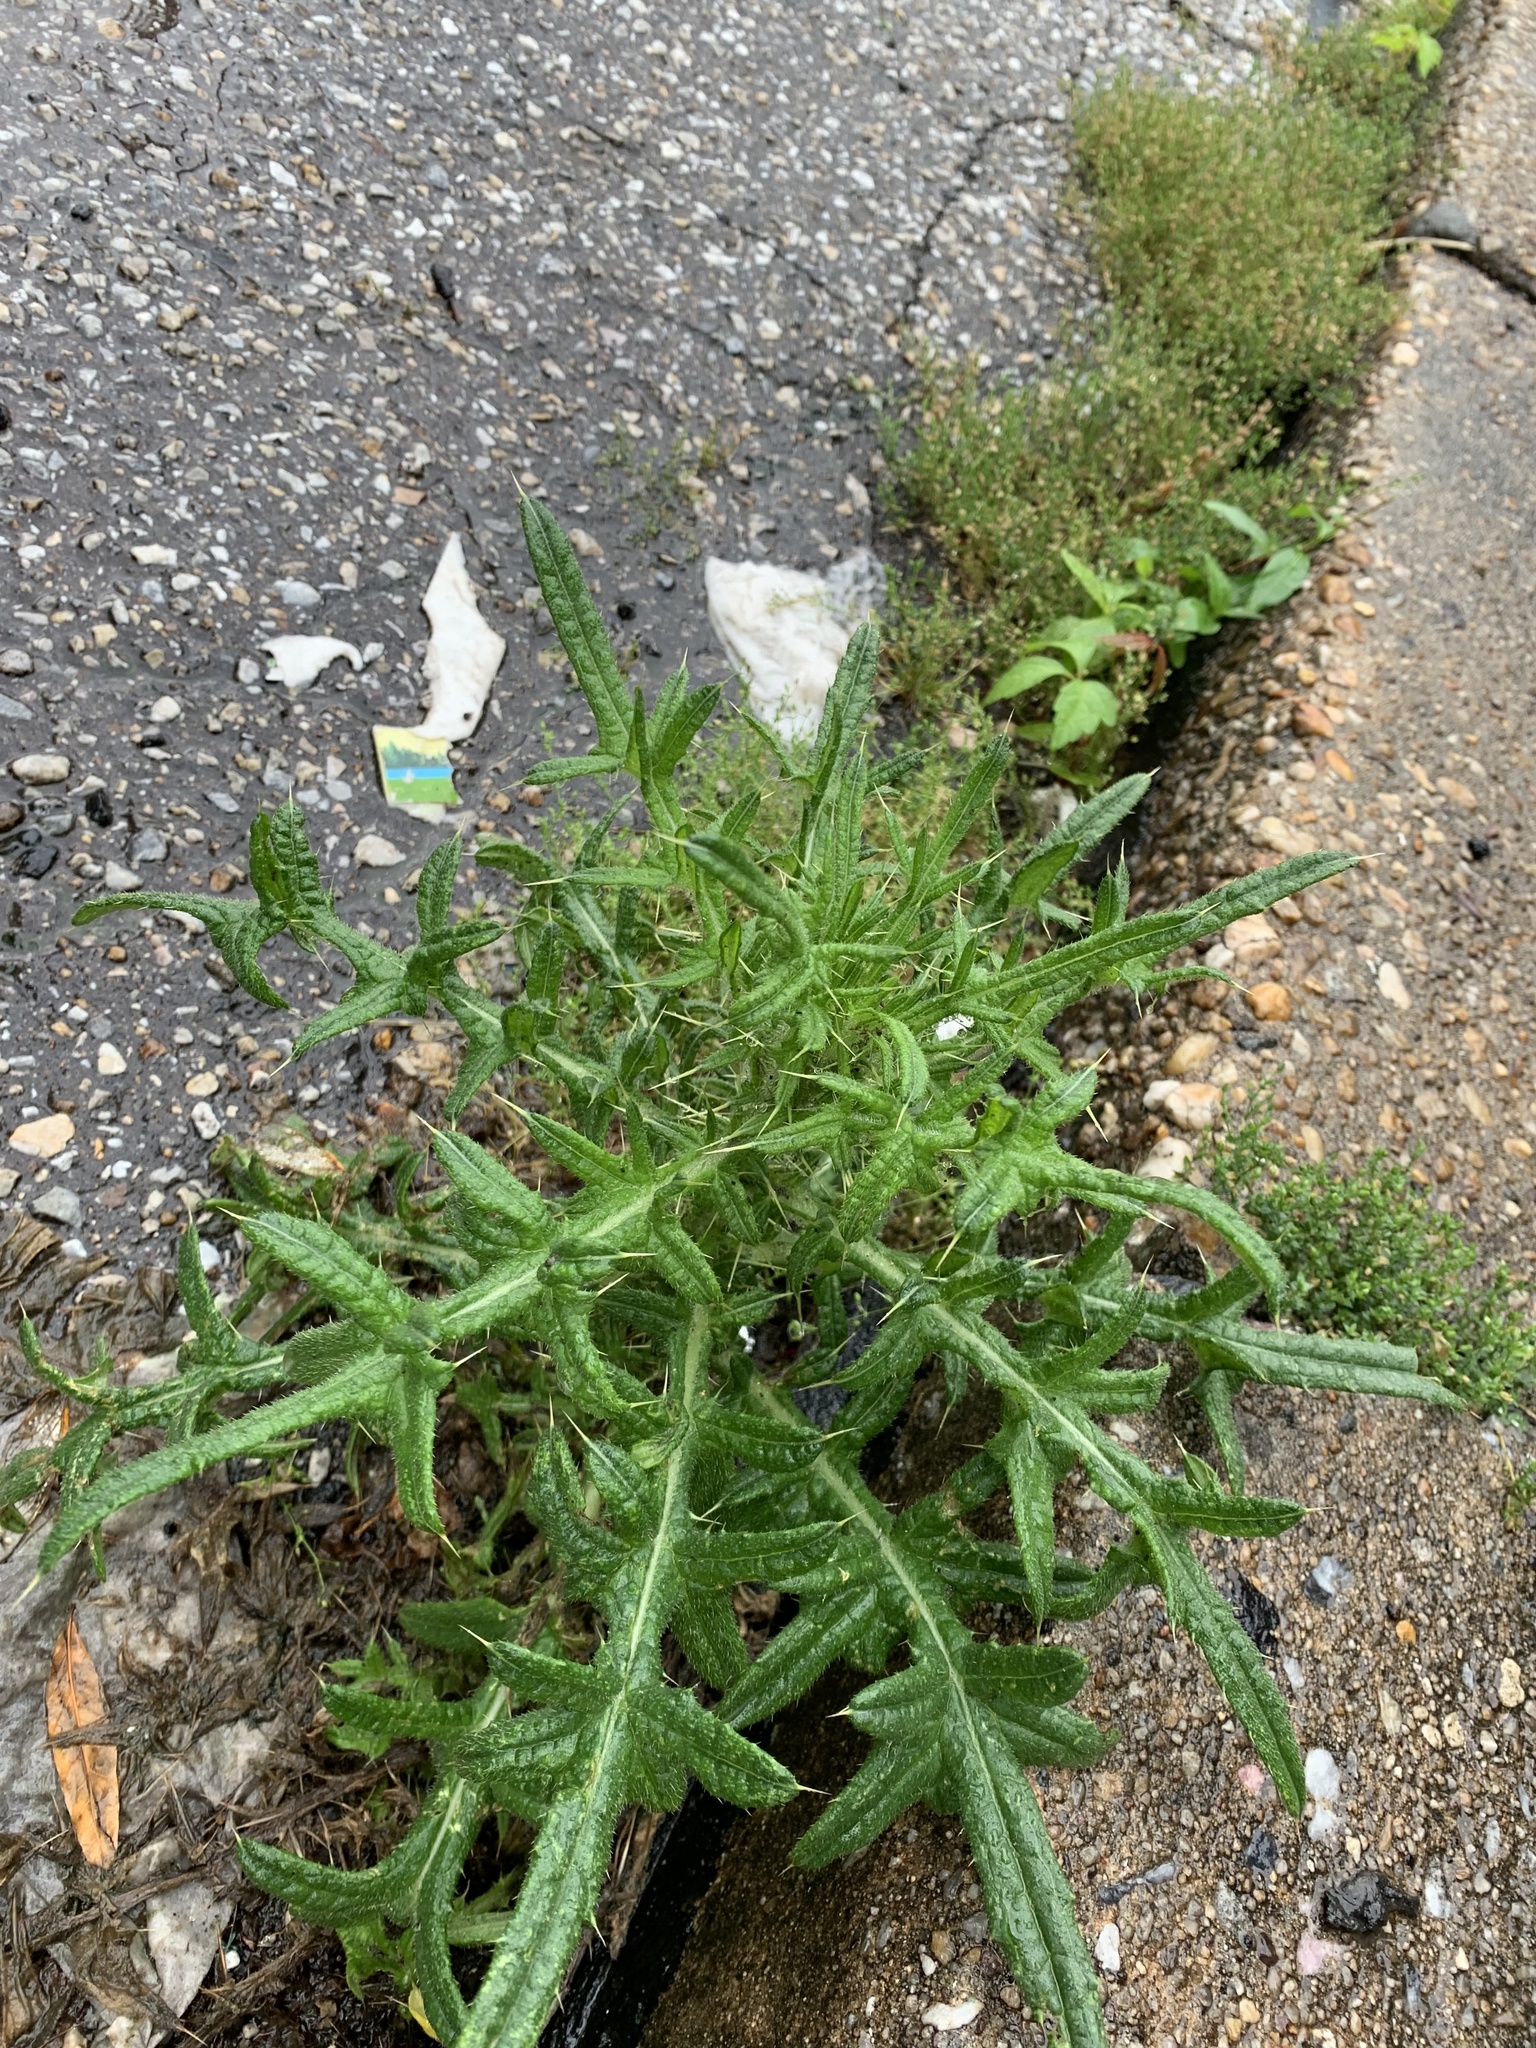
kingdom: Plantae
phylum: Tracheophyta
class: Magnoliopsida
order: Asterales
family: Asteraceae
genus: Cirsium
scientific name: Cirsium vulgare
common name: Bull thistle
